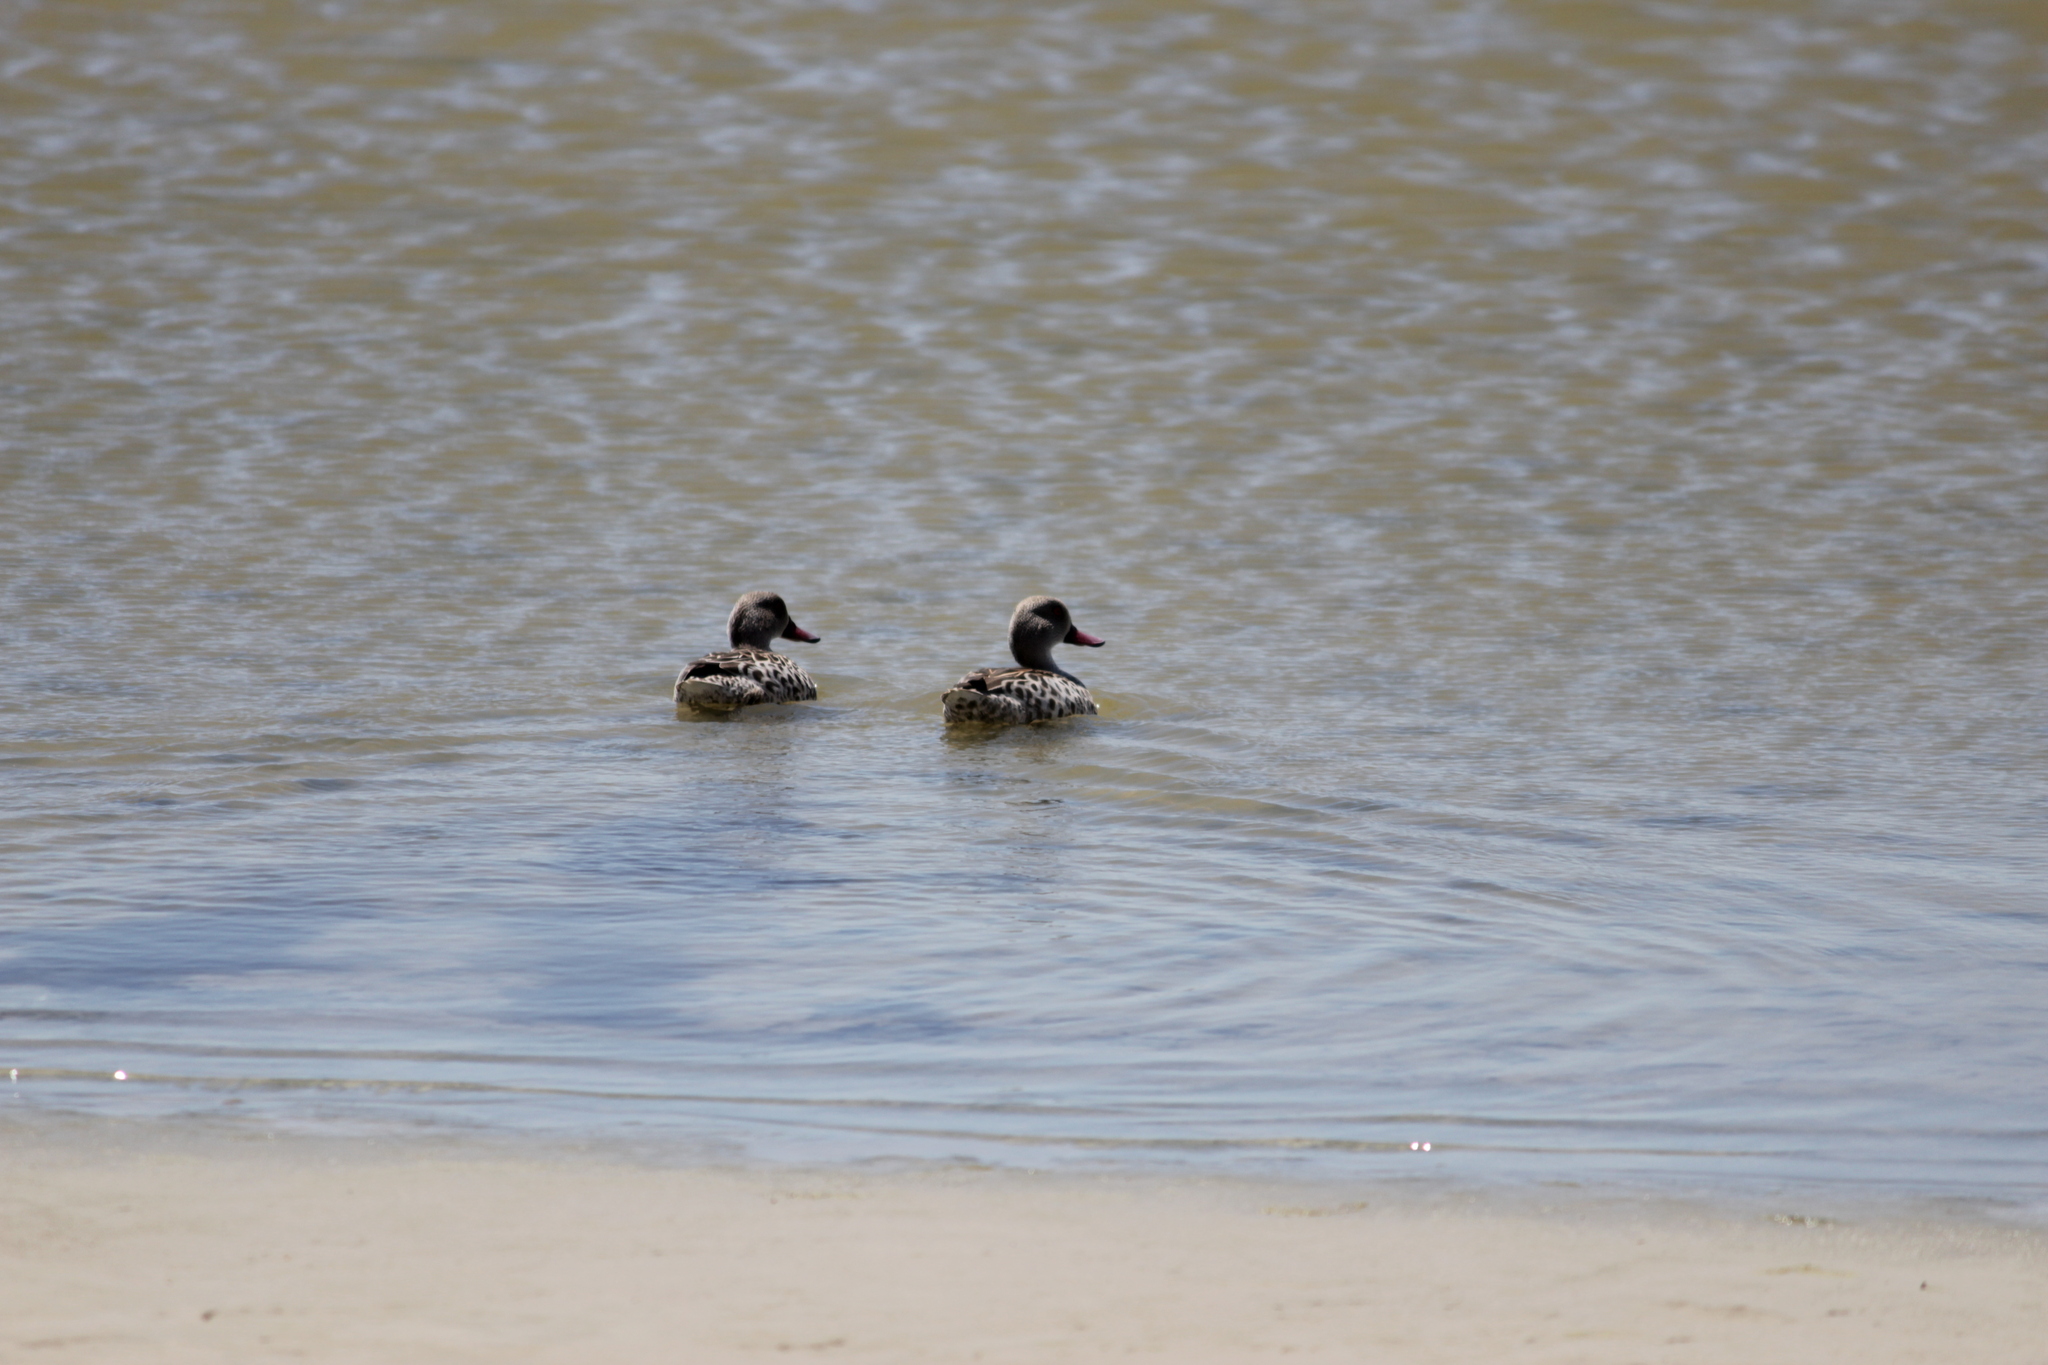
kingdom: Animalia
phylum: Chordata
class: Aves
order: Anseriformes
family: Anatidae
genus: Anas
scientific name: Anas capensis
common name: Cape teal
